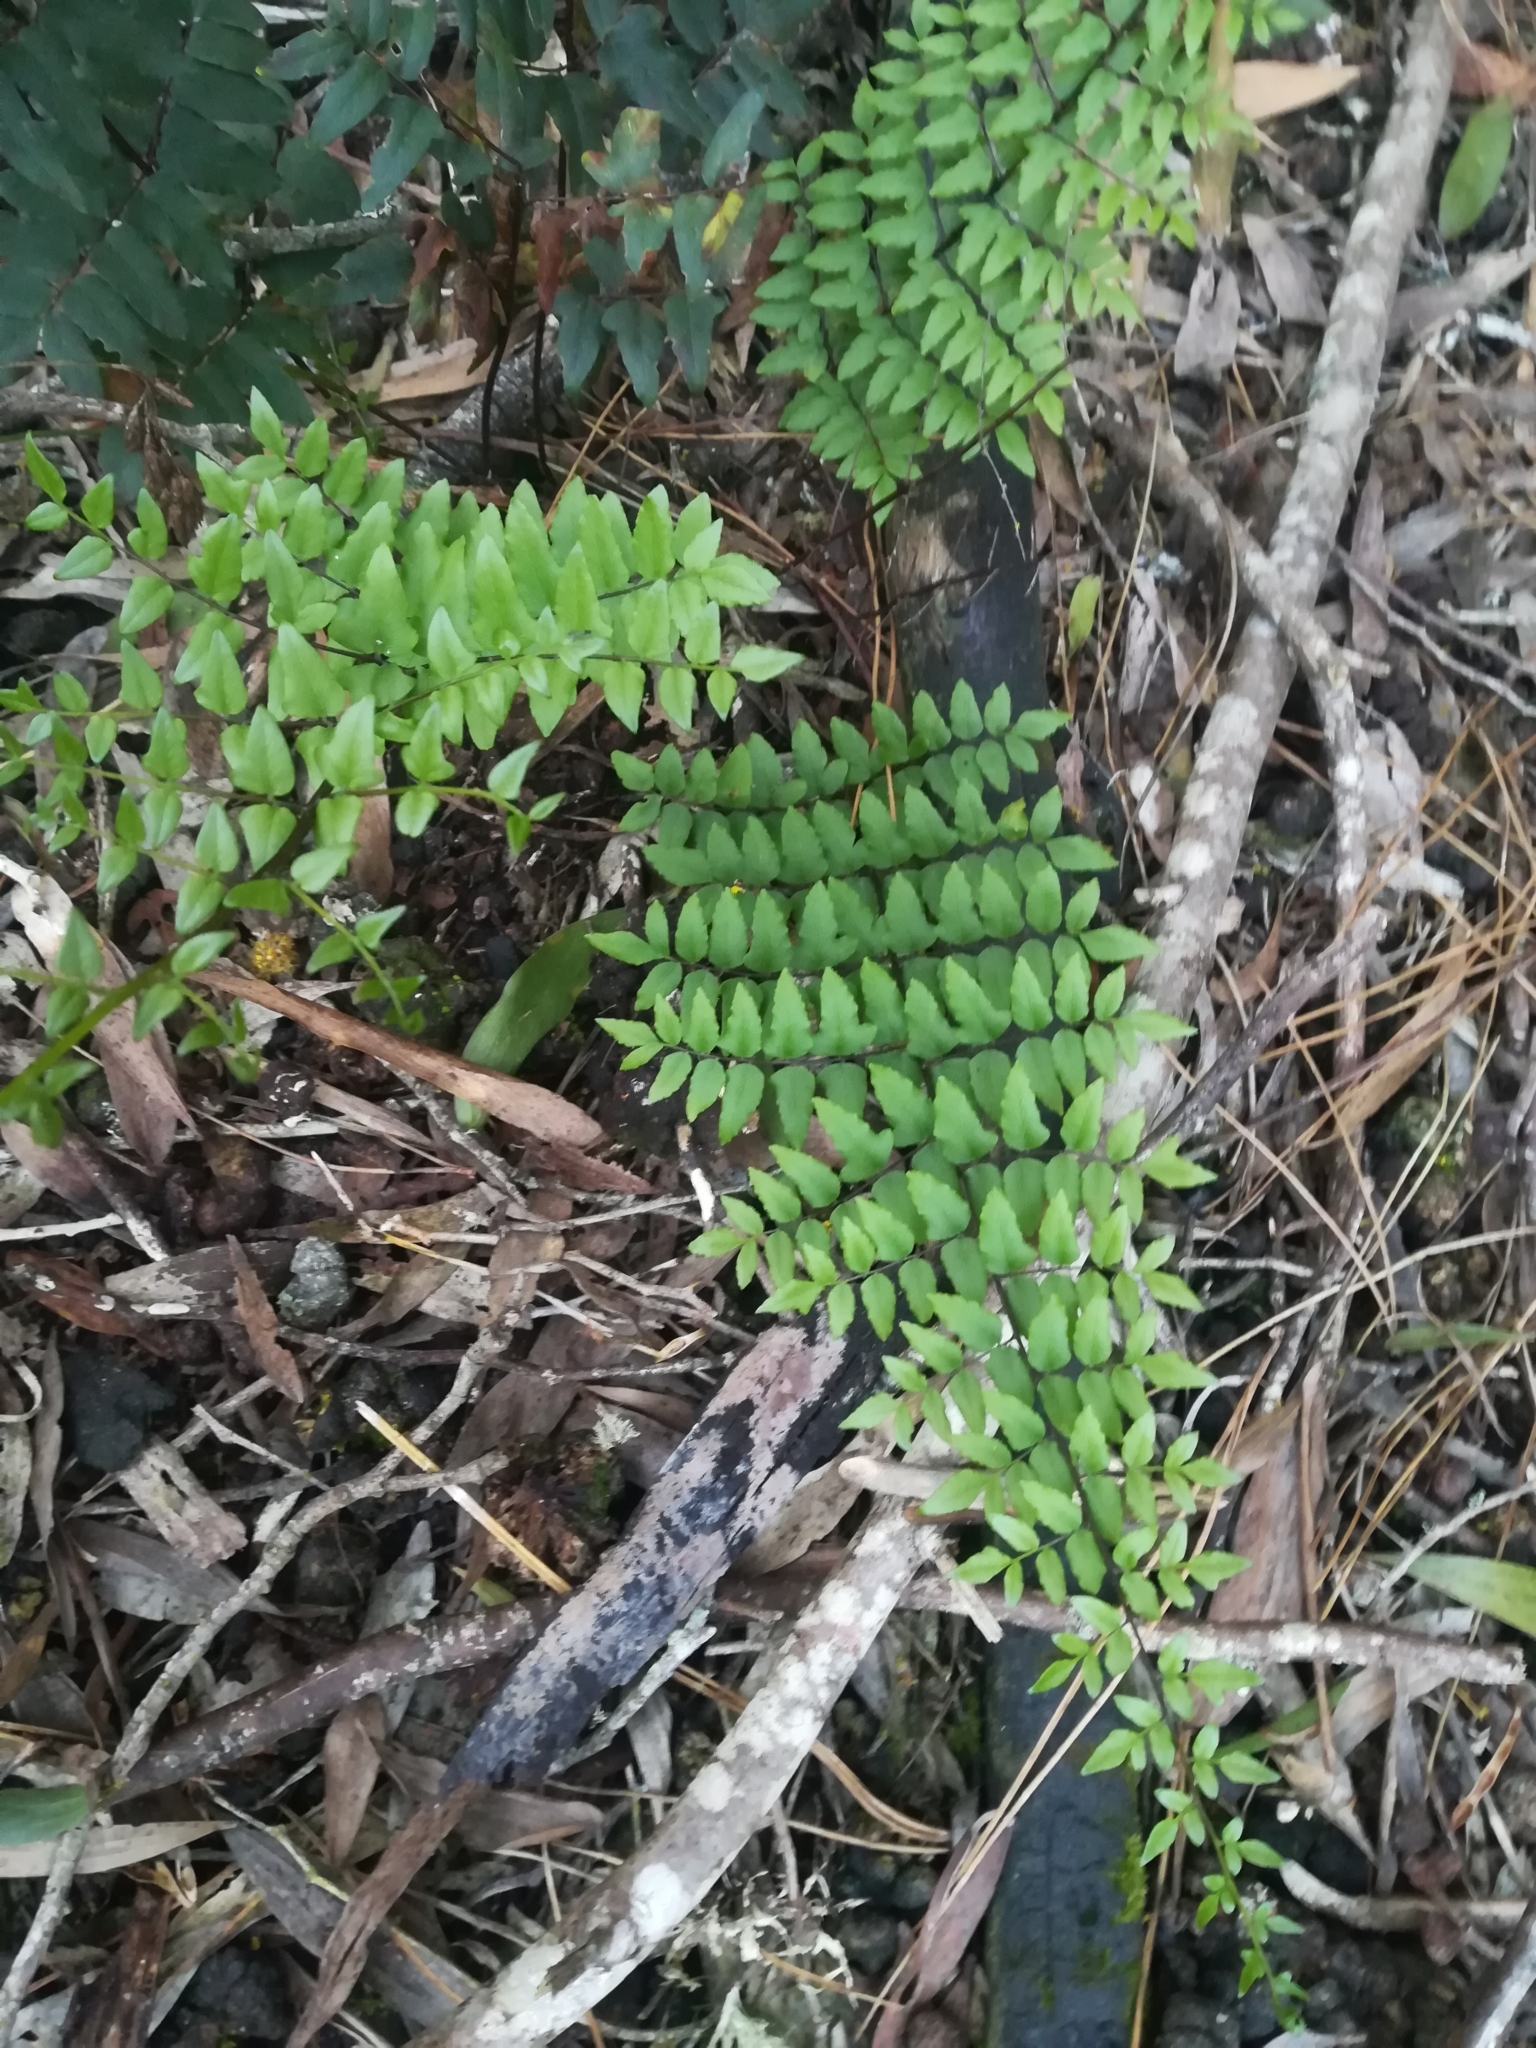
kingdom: Plantae
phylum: Tracheophyta
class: Polypodiopsida
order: Polypodiales
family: Pteridaceae
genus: Cheilanthes
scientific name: Cheilanthes viridis
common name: Green cliffbrake
